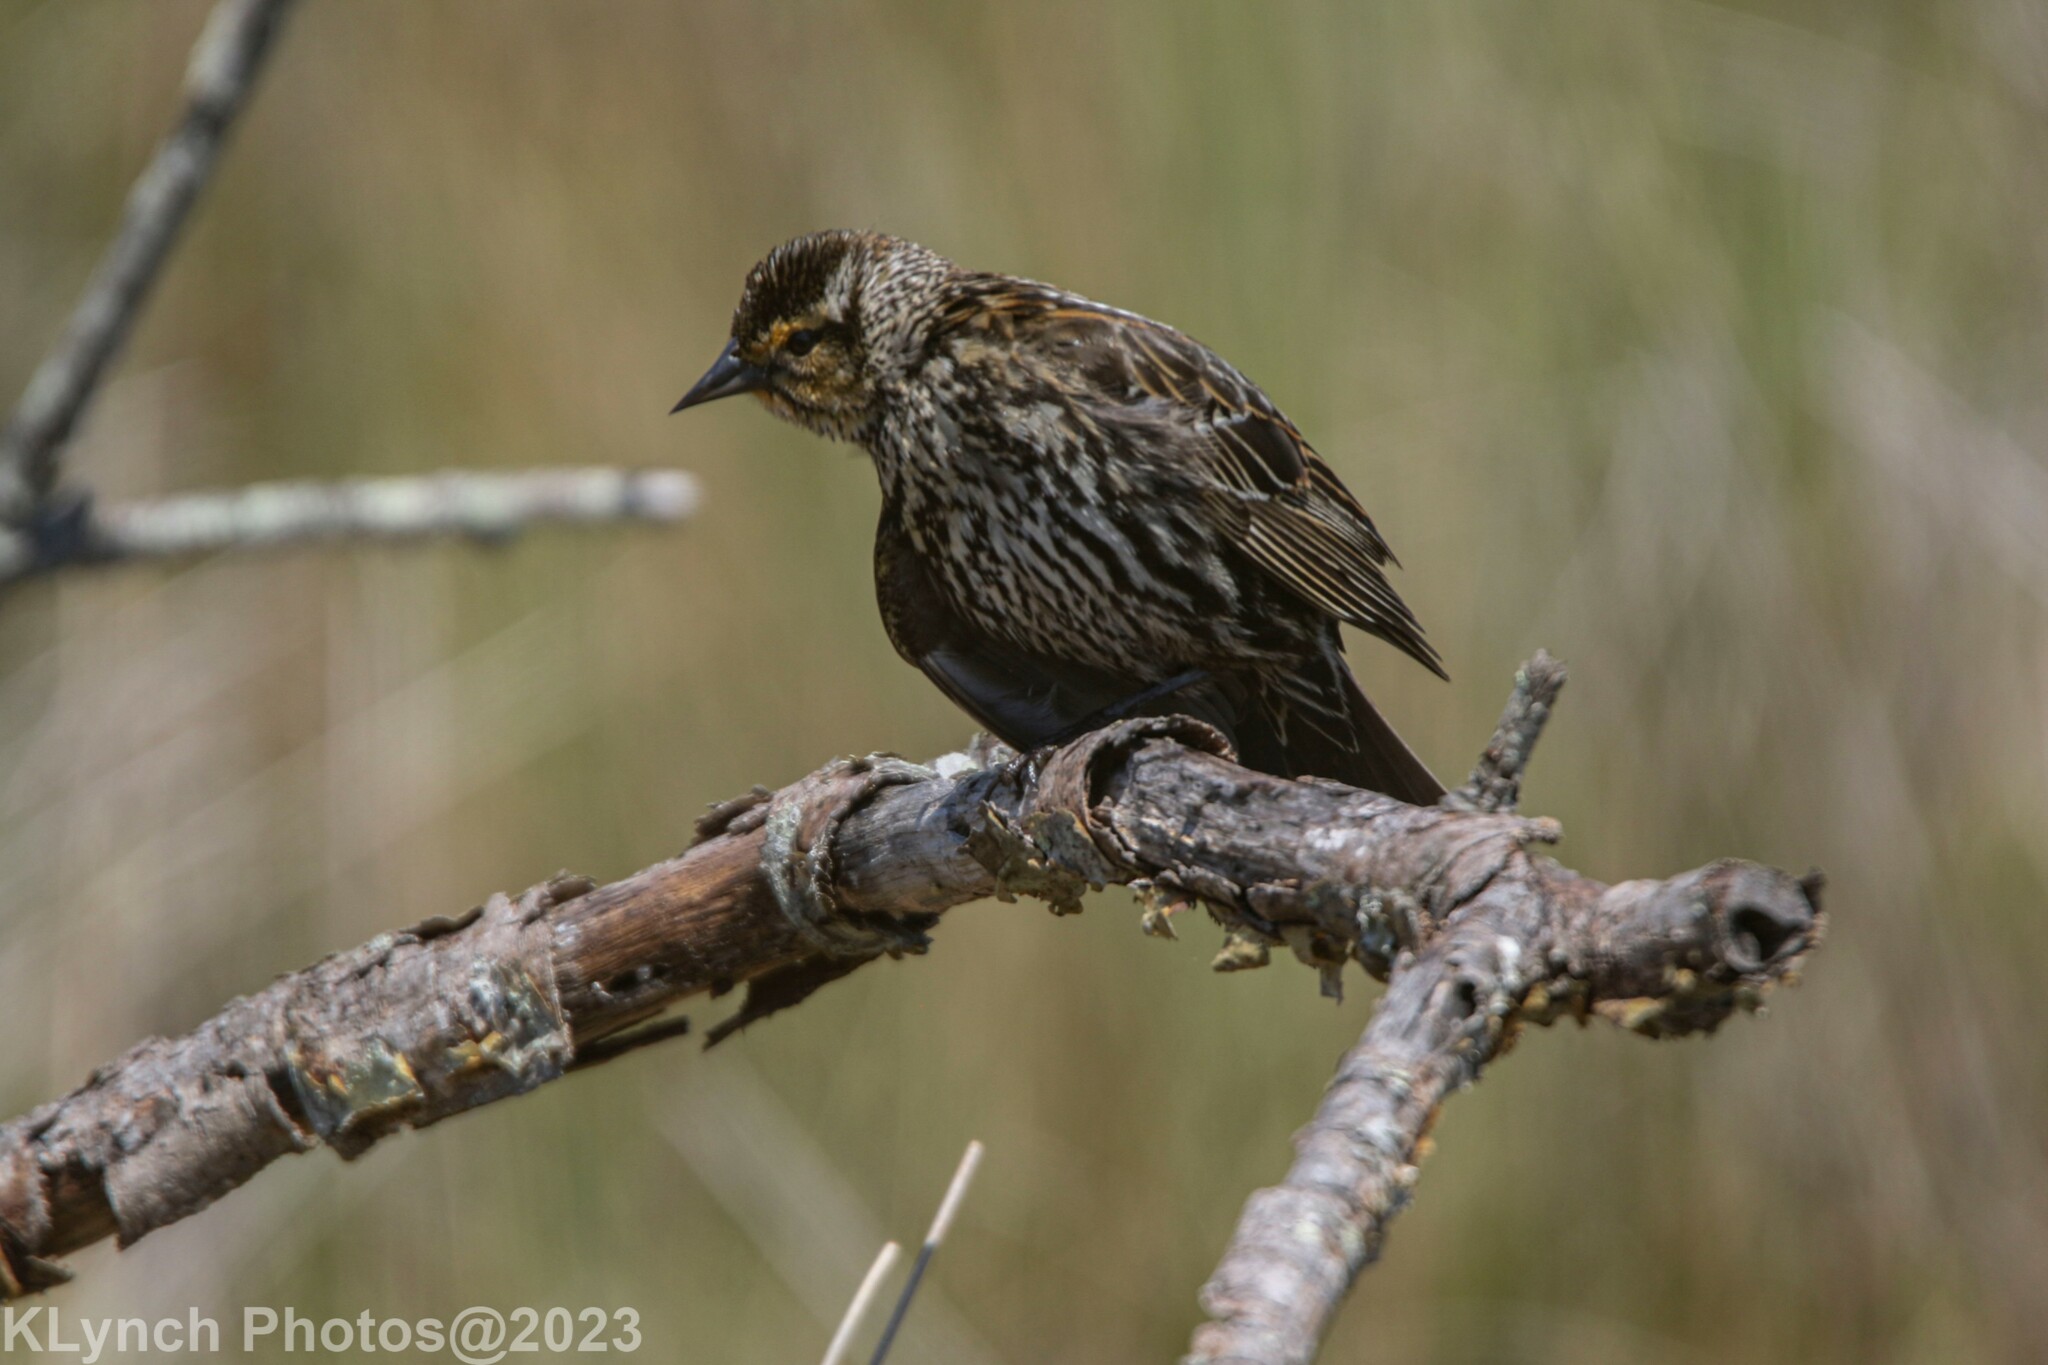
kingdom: Animalia
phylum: Chordata
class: Aves
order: Passeriformes
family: Icteridae
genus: Agelaius
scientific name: Agelaius phoeniceus
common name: Red-winged blackbird
